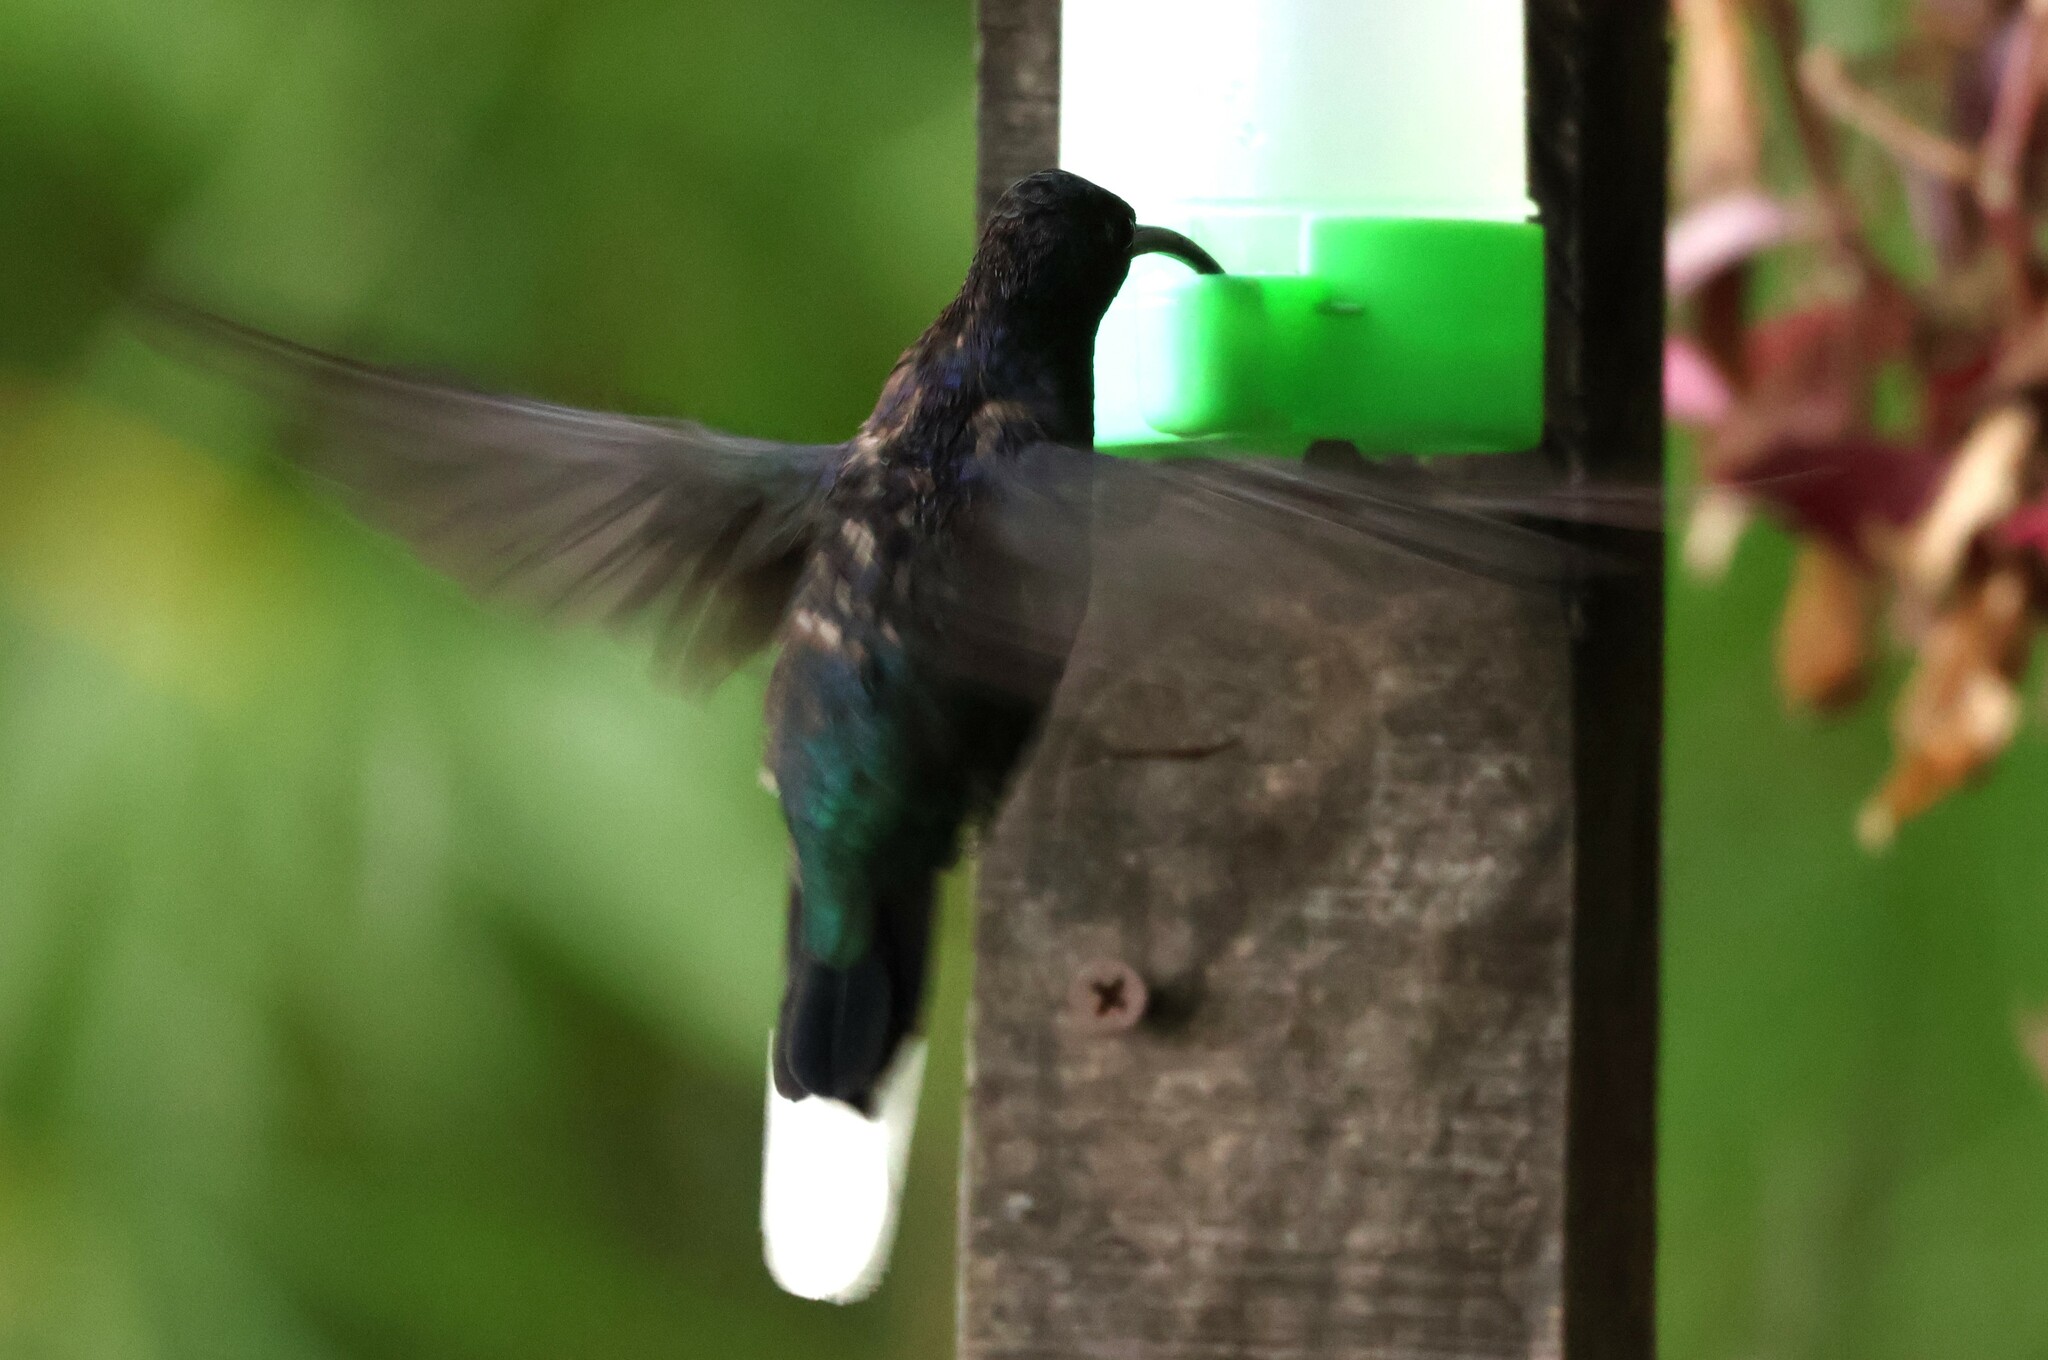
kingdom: Animalia
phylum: Chordata
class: Aves
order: Apodiformes
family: Trochilidae
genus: Campylopterus
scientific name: Campylopterus hemileucurus
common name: Violet sabrewing
